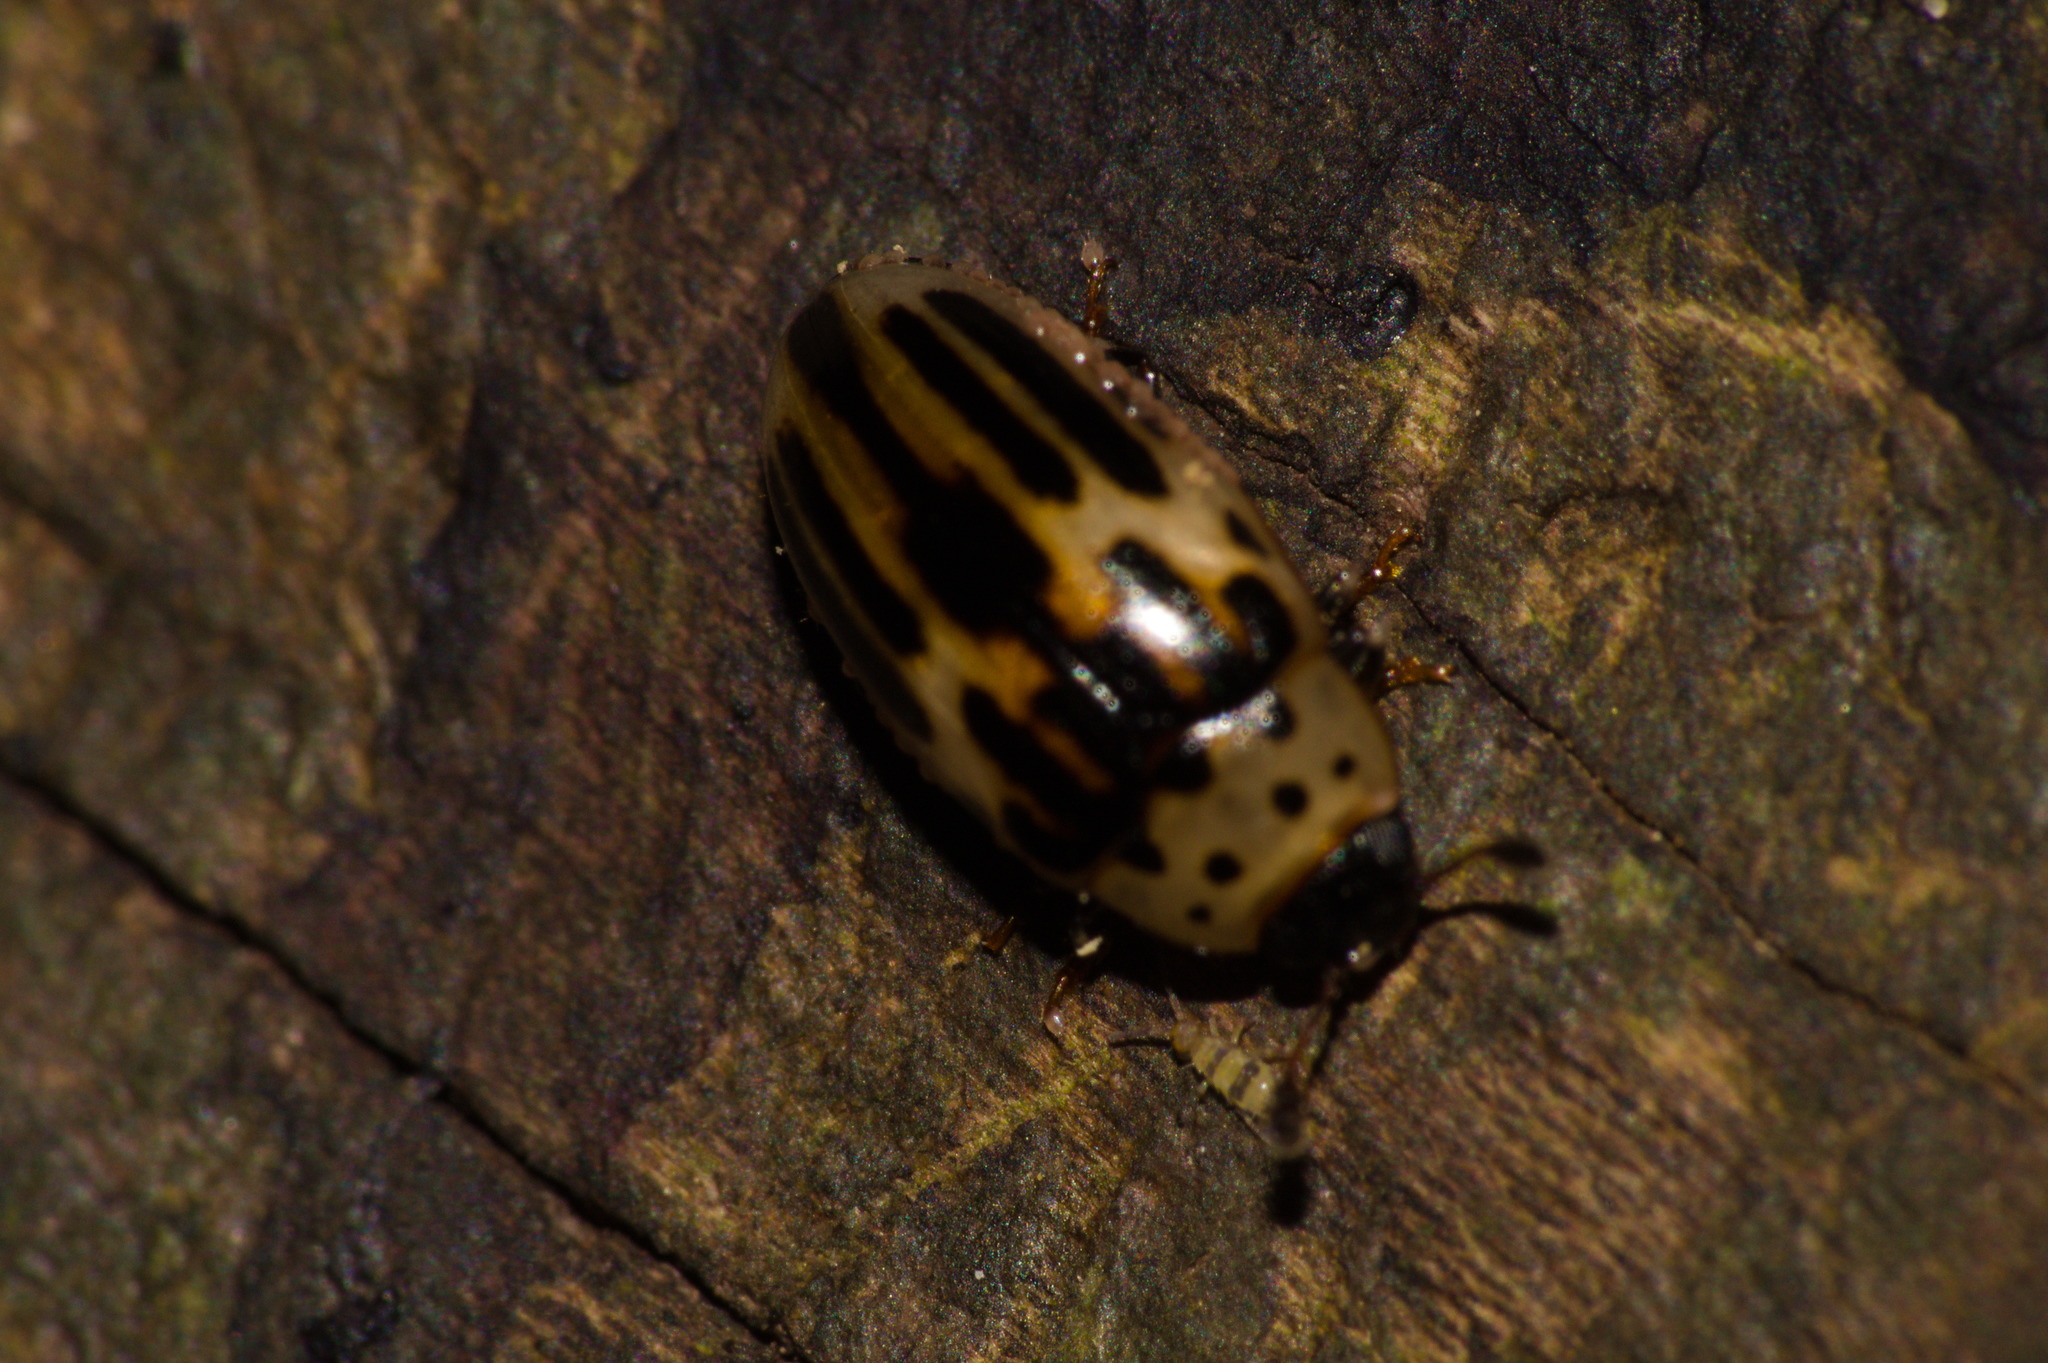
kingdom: Animalia
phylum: Arthropoda
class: Insecta
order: Coleoptera
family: Erotylidae
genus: Ischyrus
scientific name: Ischyrus
